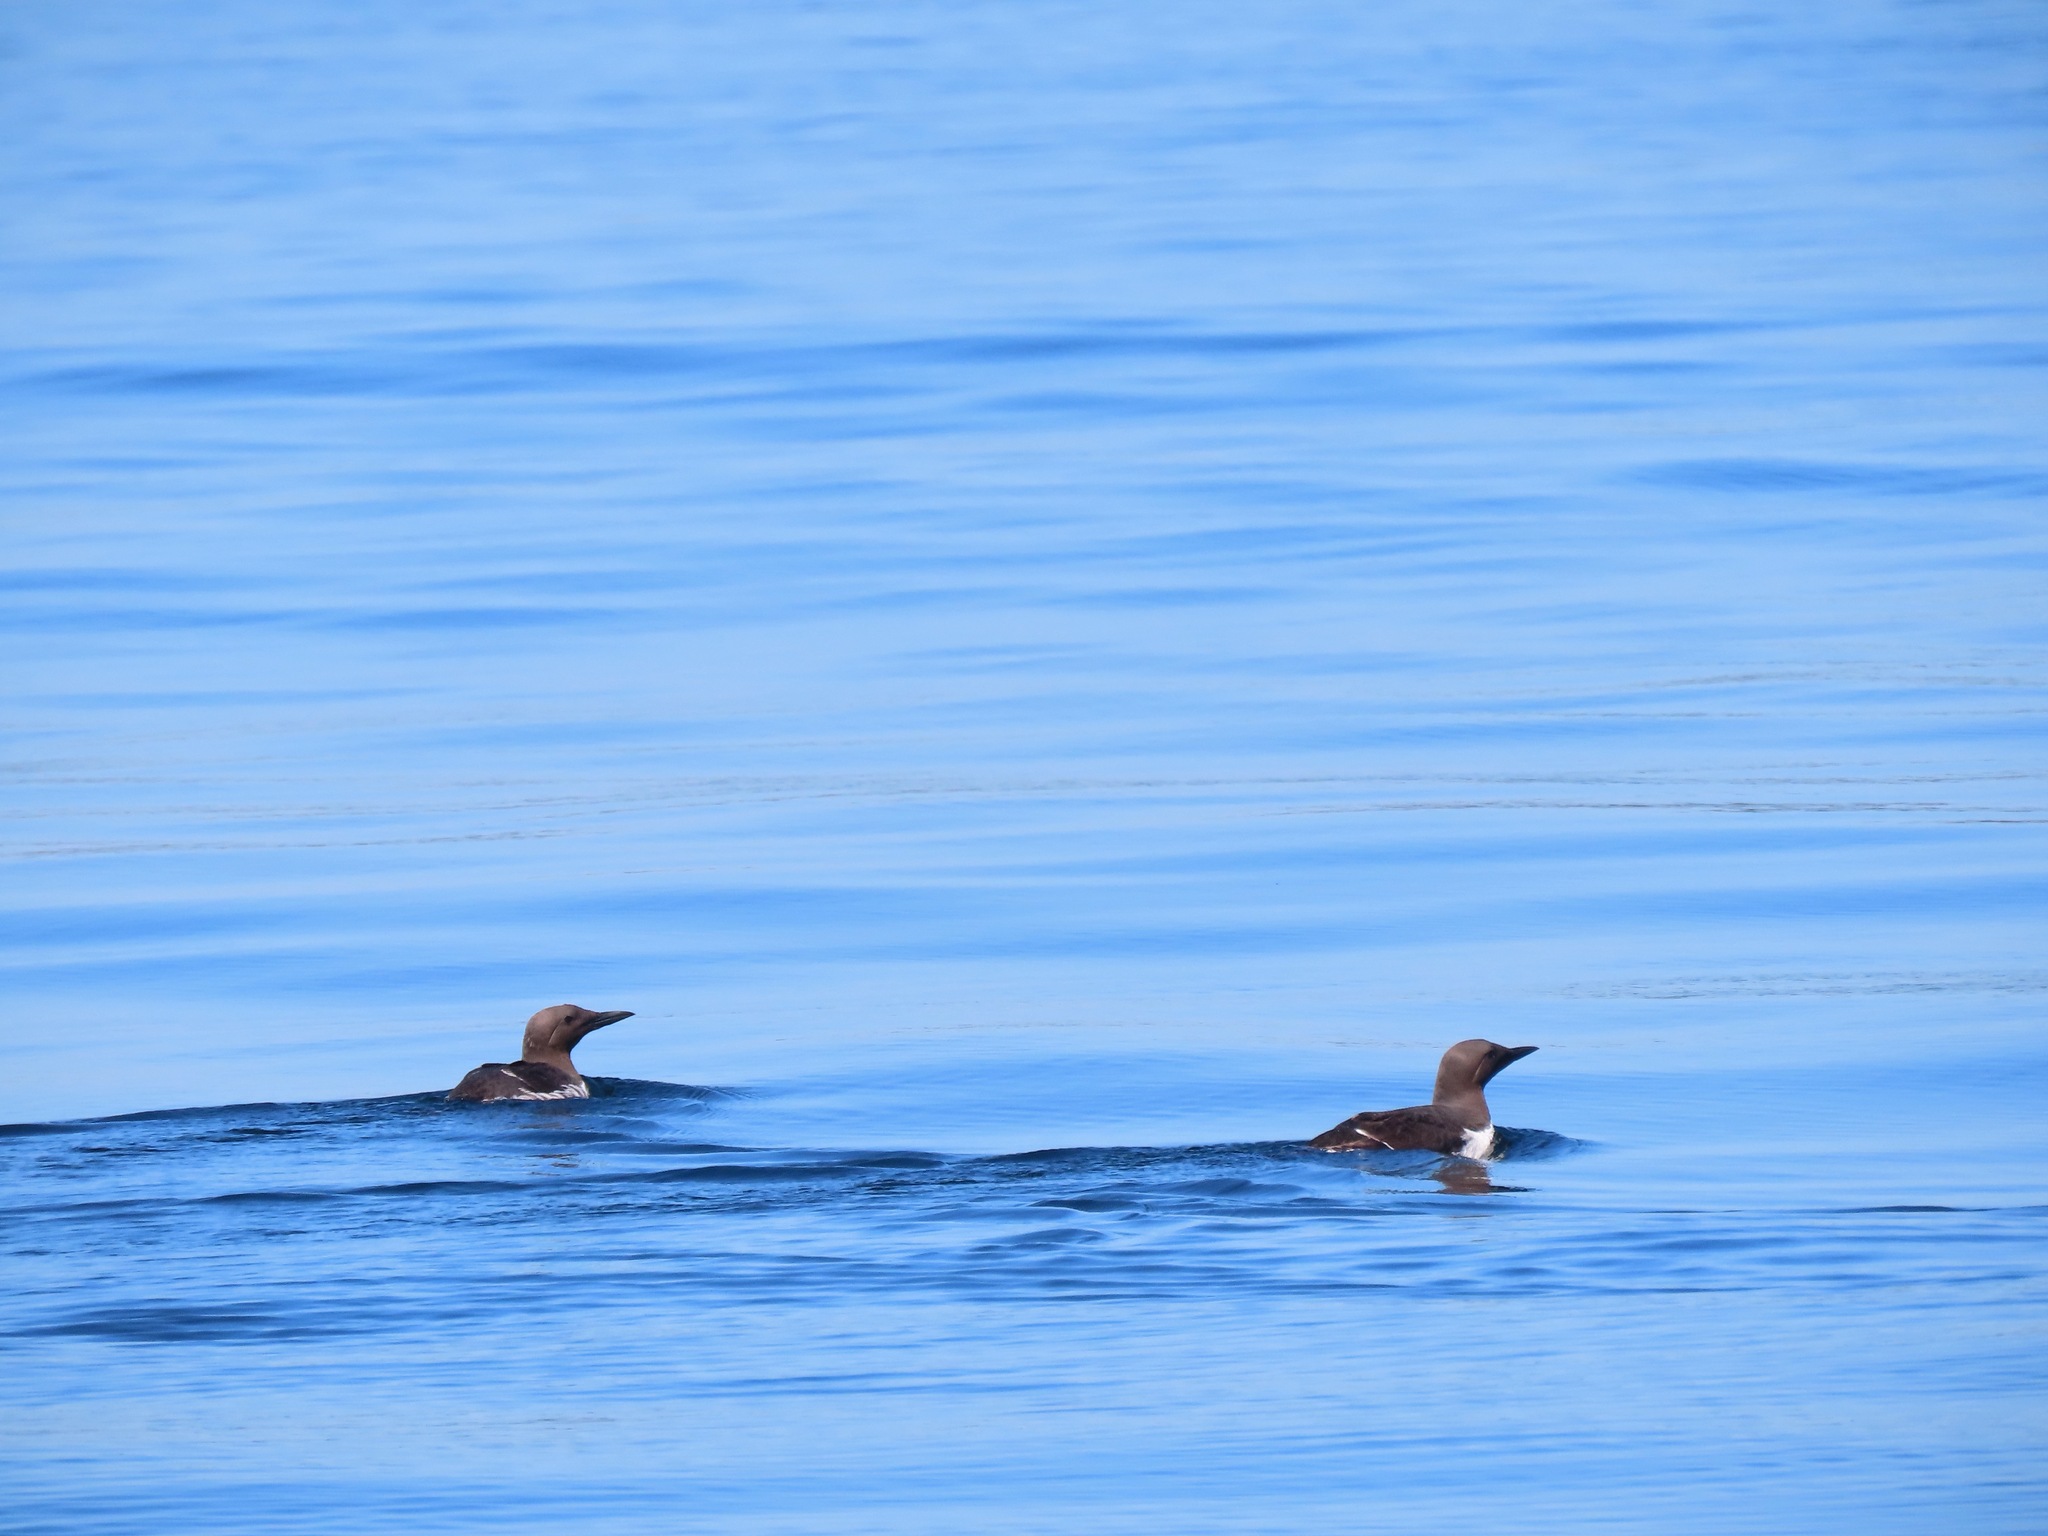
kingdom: Animalia
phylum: Chordata
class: Aves
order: Charadriiformes
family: Alcidae
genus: Uria
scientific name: Uria aalge
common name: Common murre
